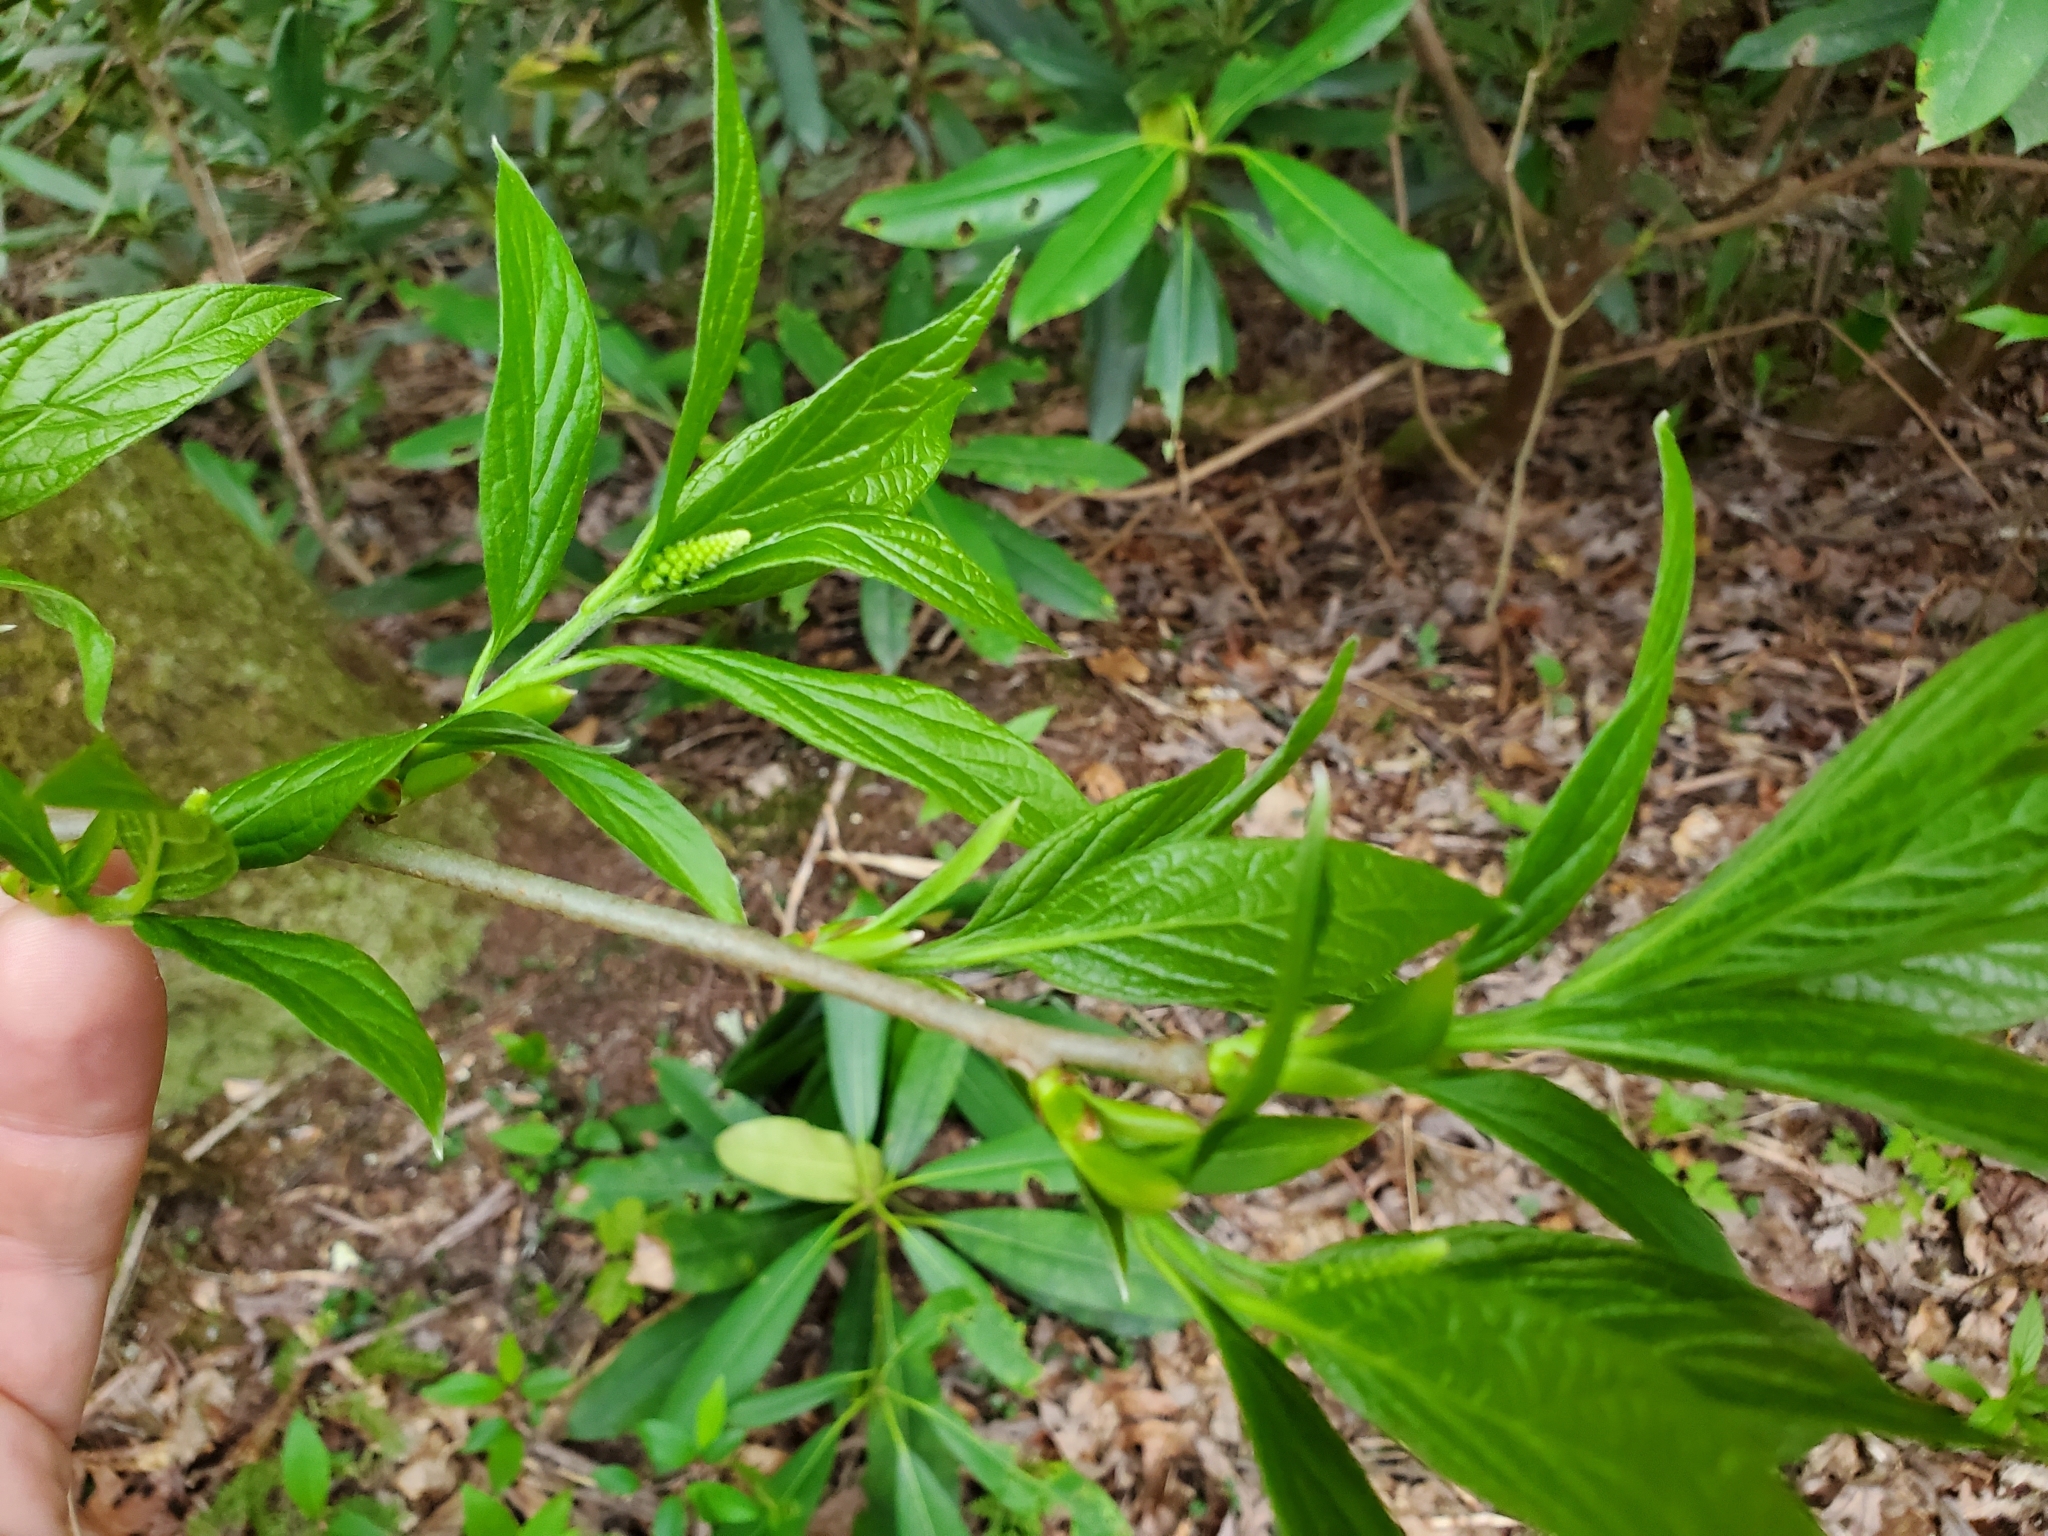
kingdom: Plantae
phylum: Tracheophyta
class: Magnoliopsida
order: Santalales
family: Cervantesiaceae
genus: Pyrularia
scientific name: Pyrularia pubera
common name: Oilnut
